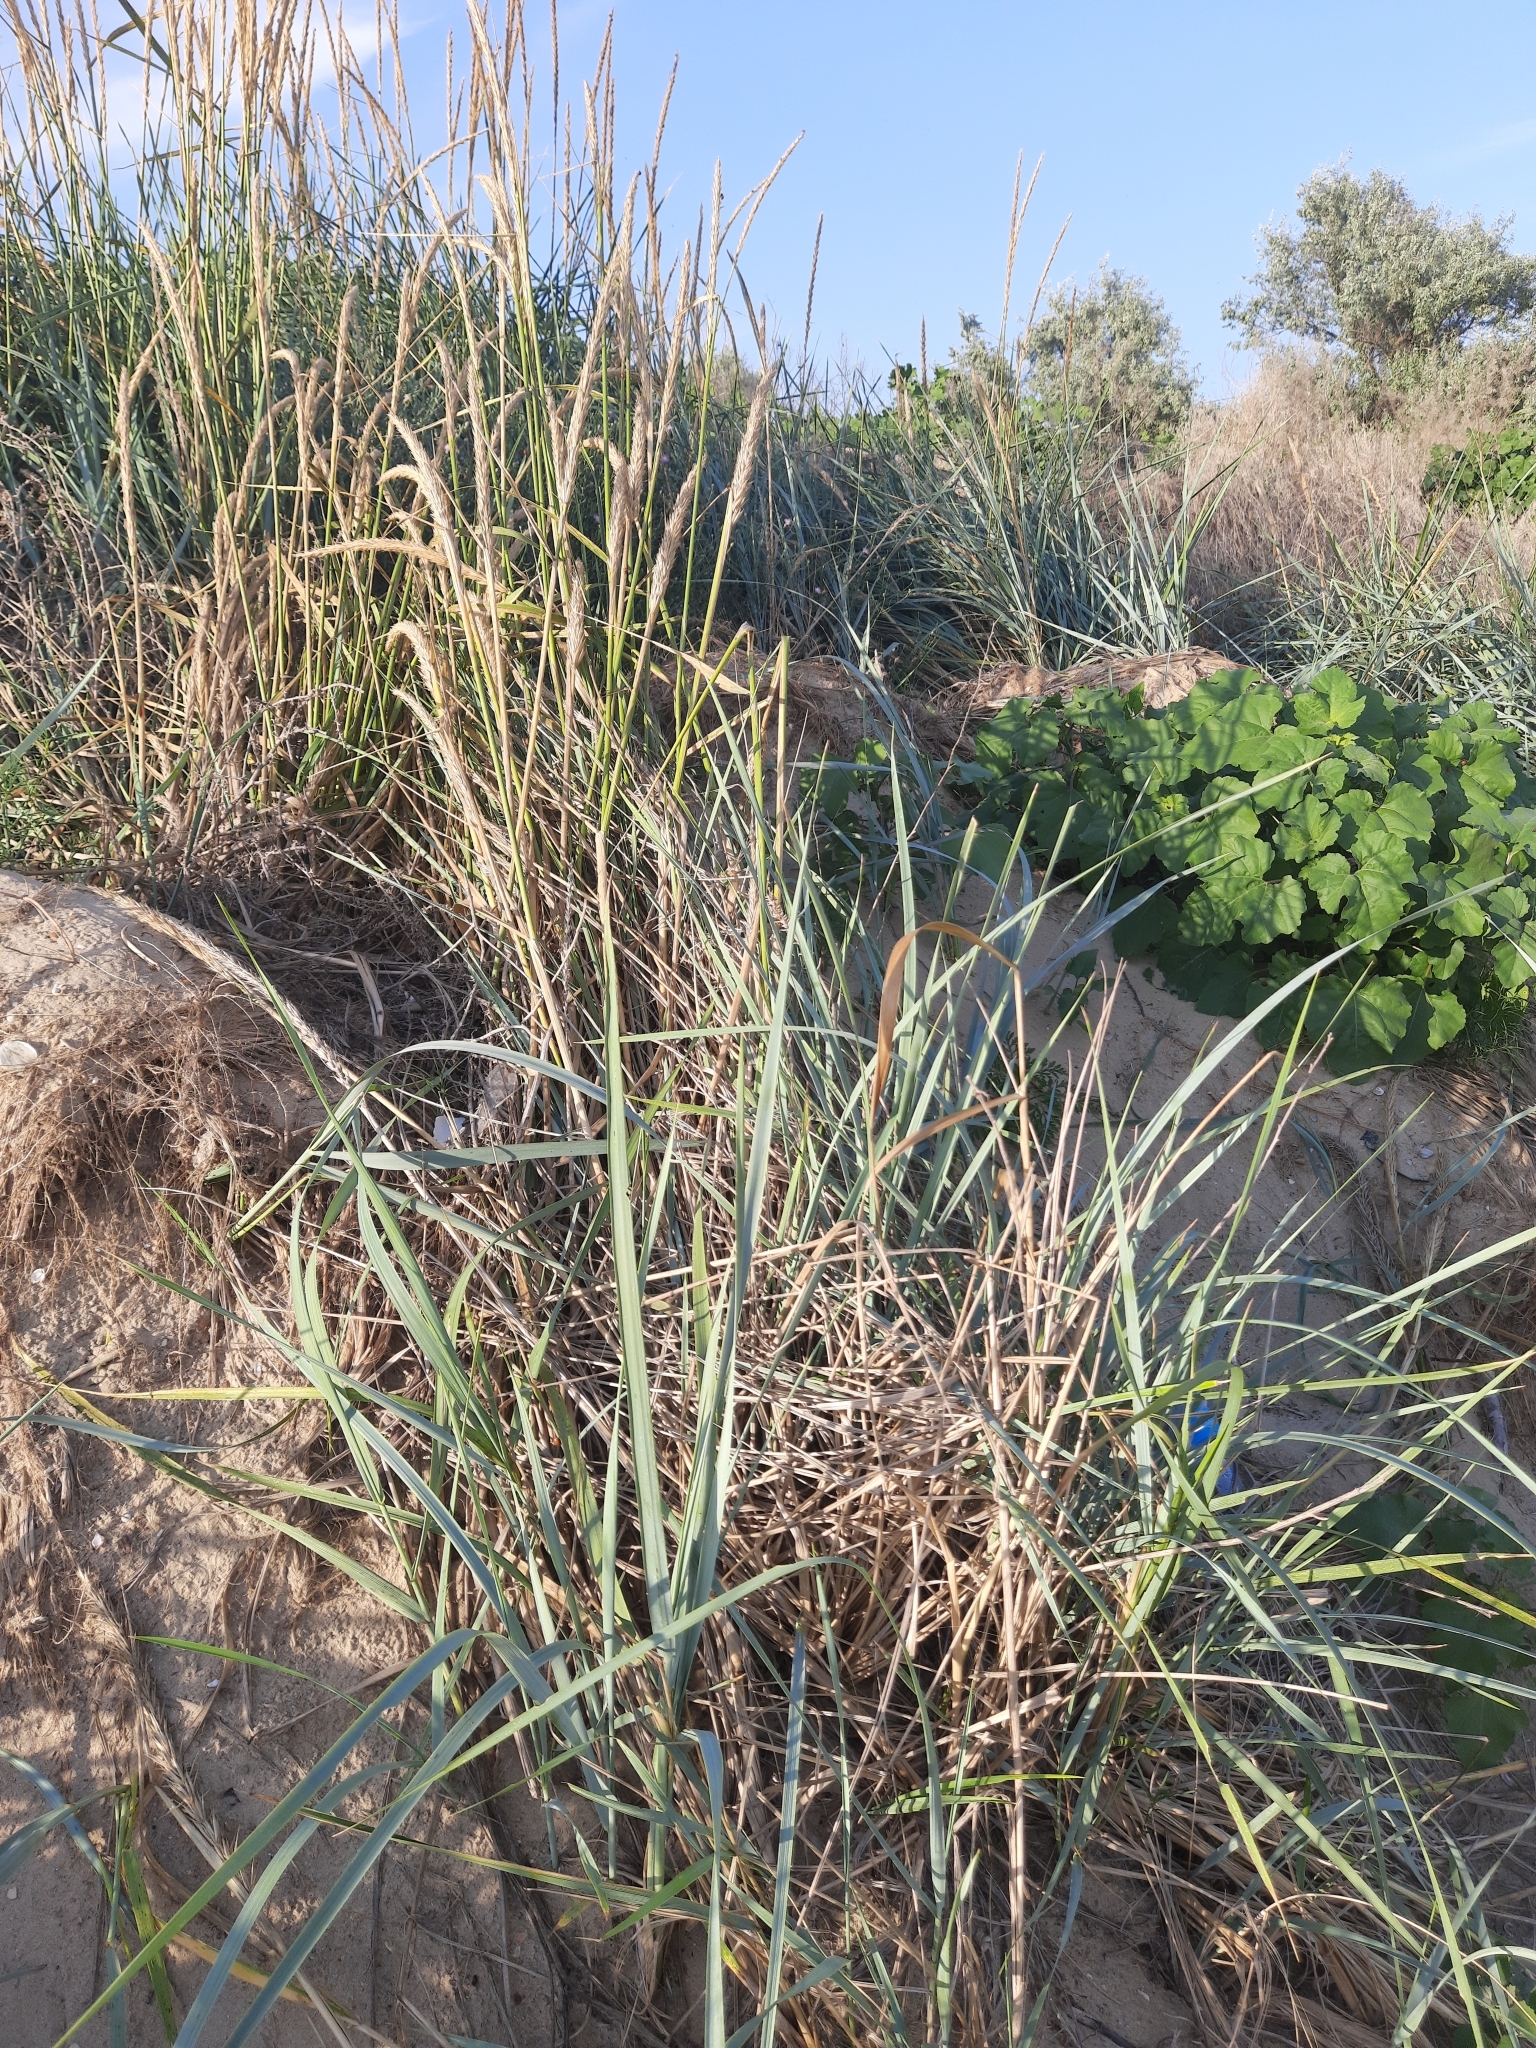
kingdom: Plantae
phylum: Tracheophyta
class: Liliopsida
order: Poales
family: Poaceae
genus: Leymus
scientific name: Leymus racemosus
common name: Mammoth wildrye
